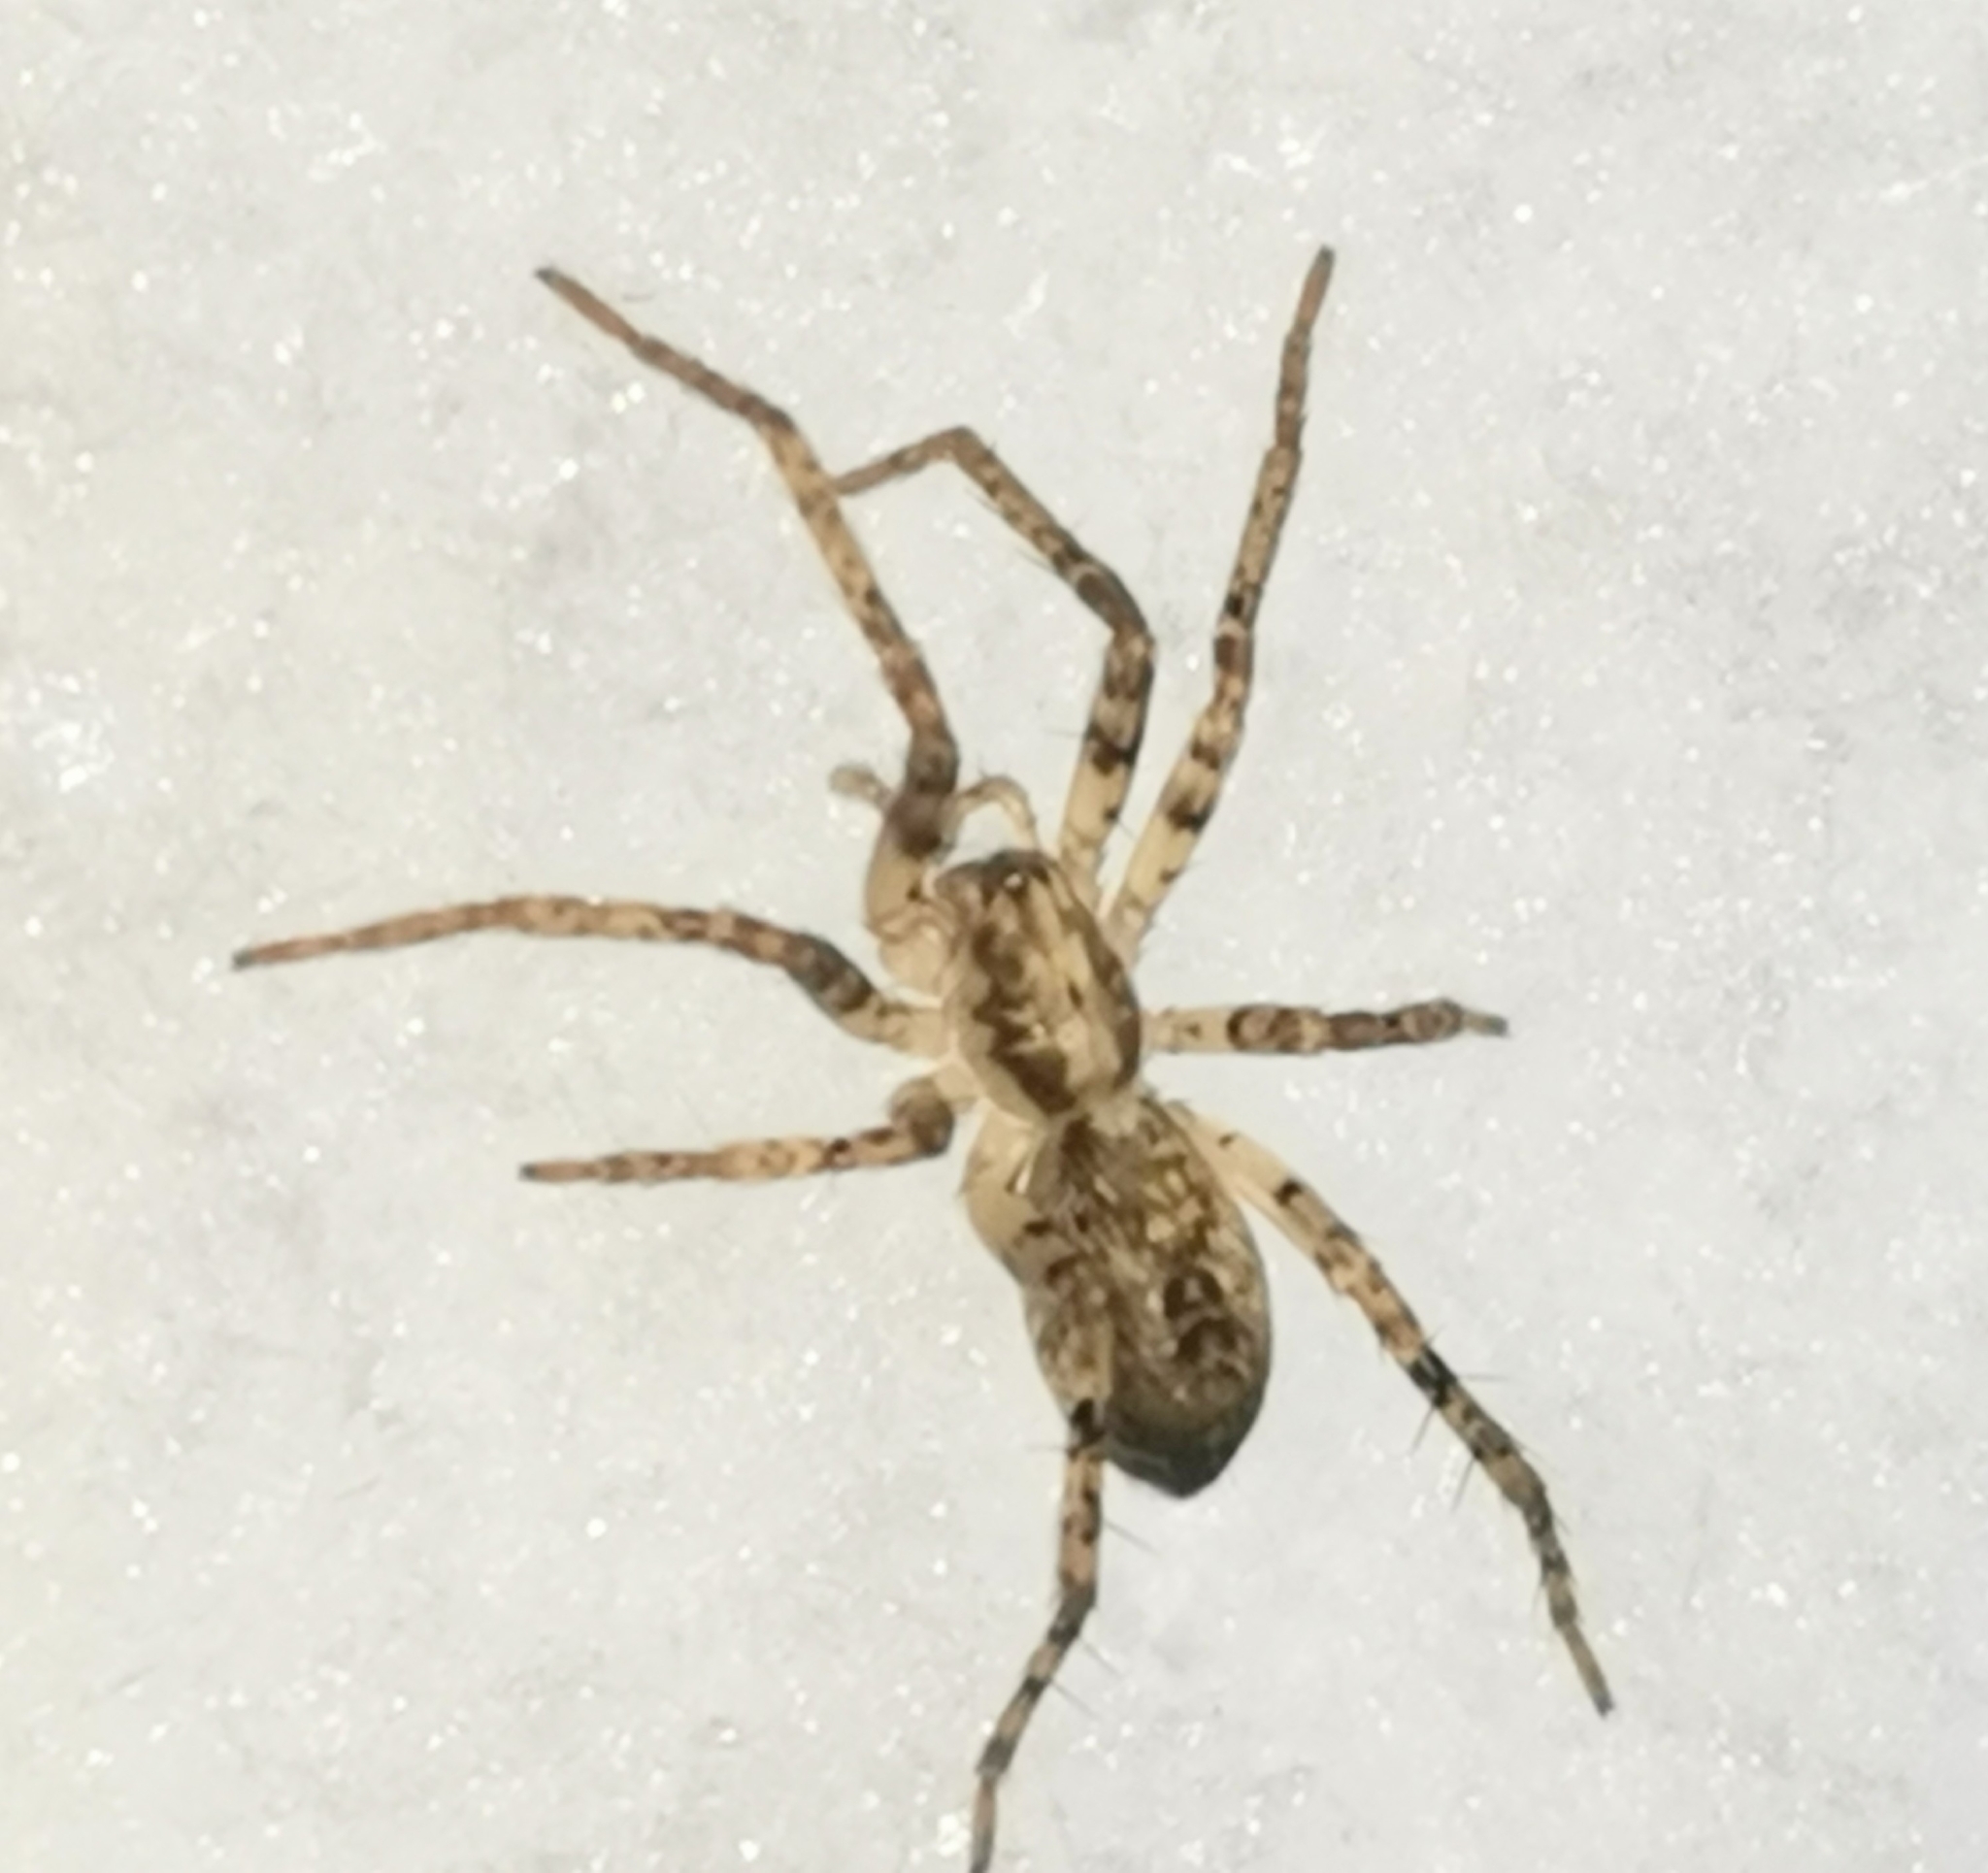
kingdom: Animalia
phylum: Arthropoda
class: Arachnida
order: Araneae
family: Anyphaenidae
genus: Anyphaena
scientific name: Anyphaena accentuata
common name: Buzzing spider
